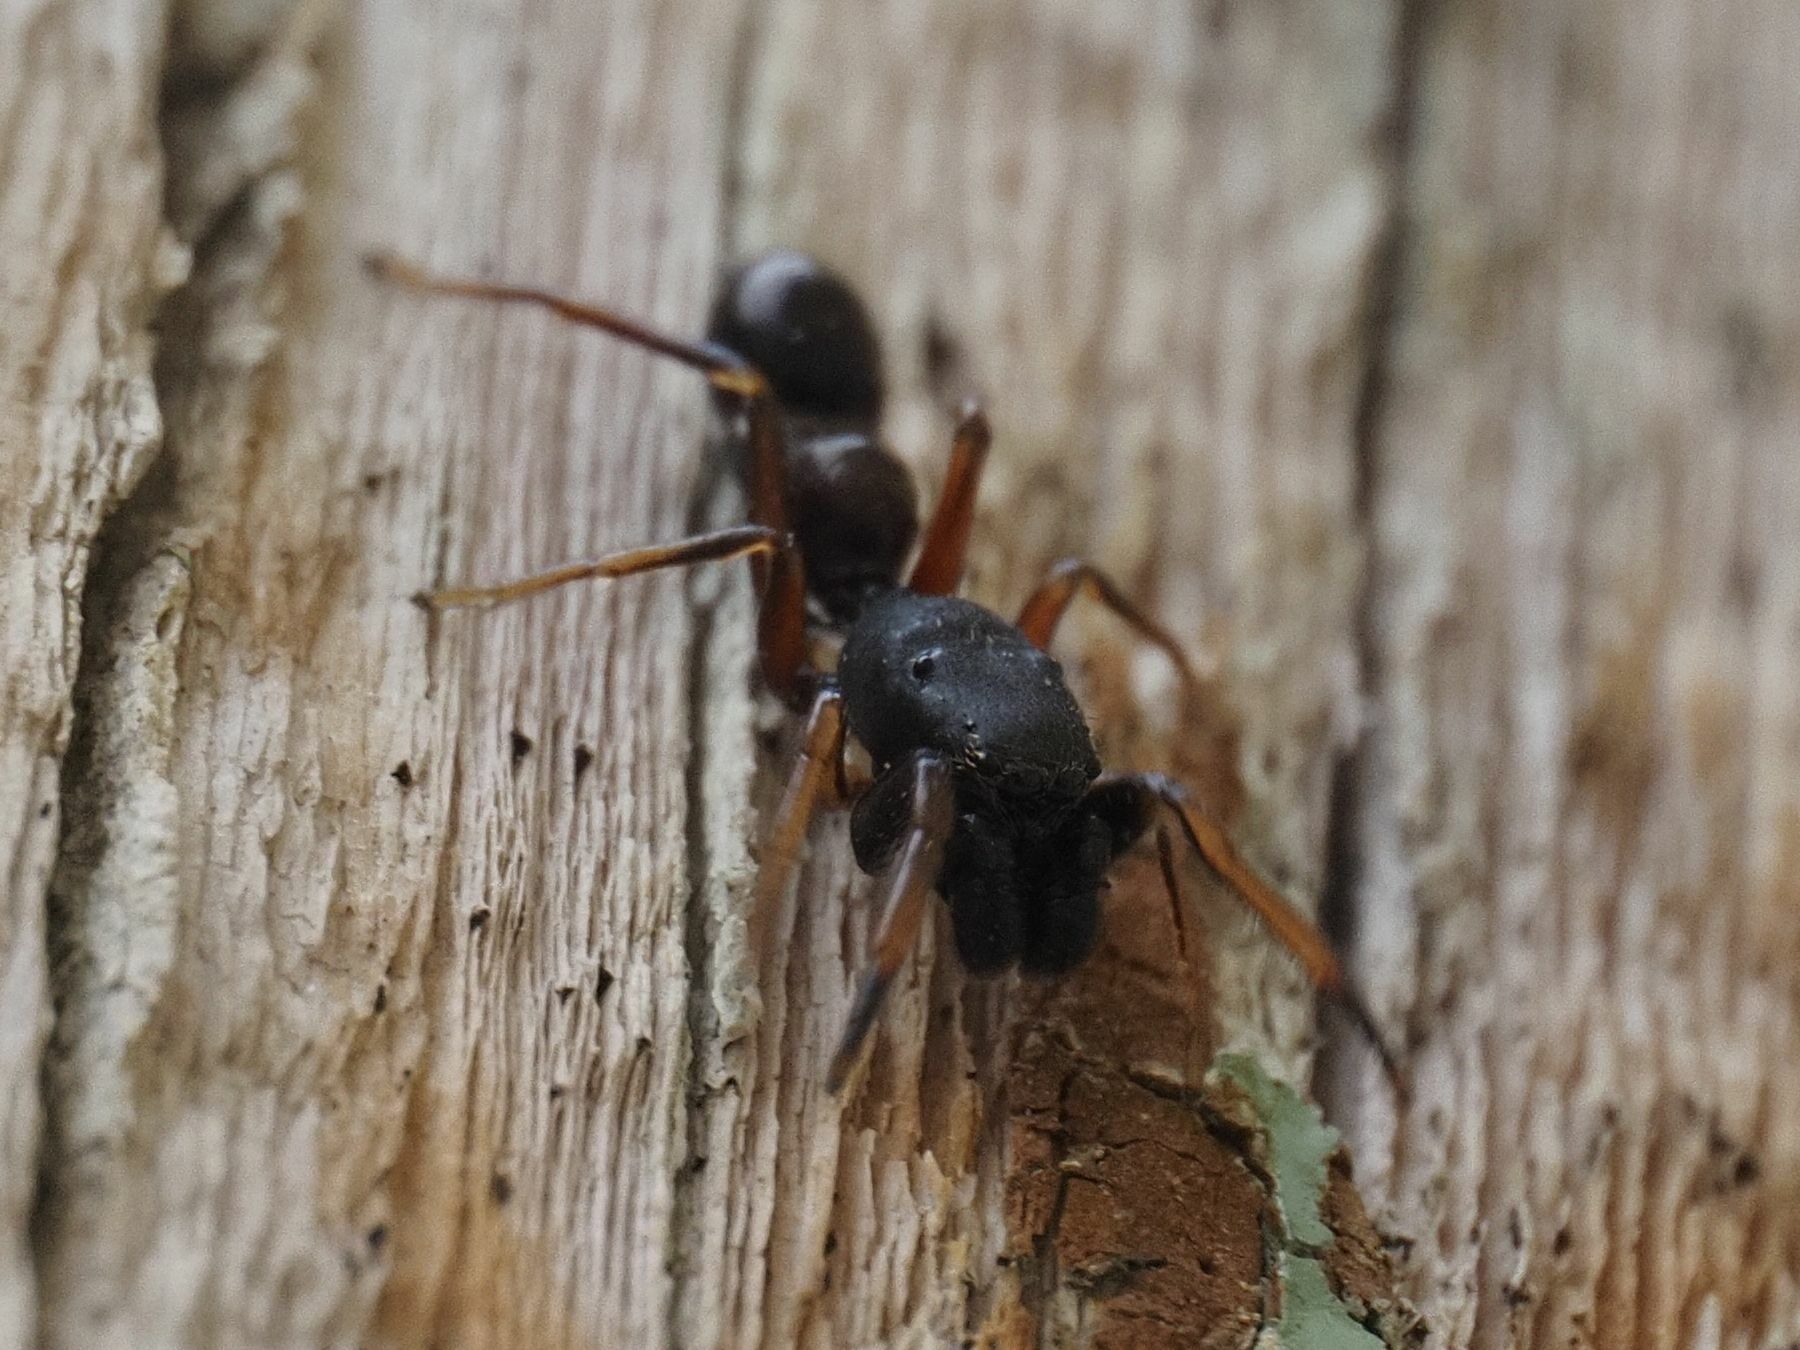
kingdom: Animalia
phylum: Arthropoda
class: Arachnida
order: Araneae
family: Salticidae
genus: Leptorchestes
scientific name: Leptorchestes berolinensis
